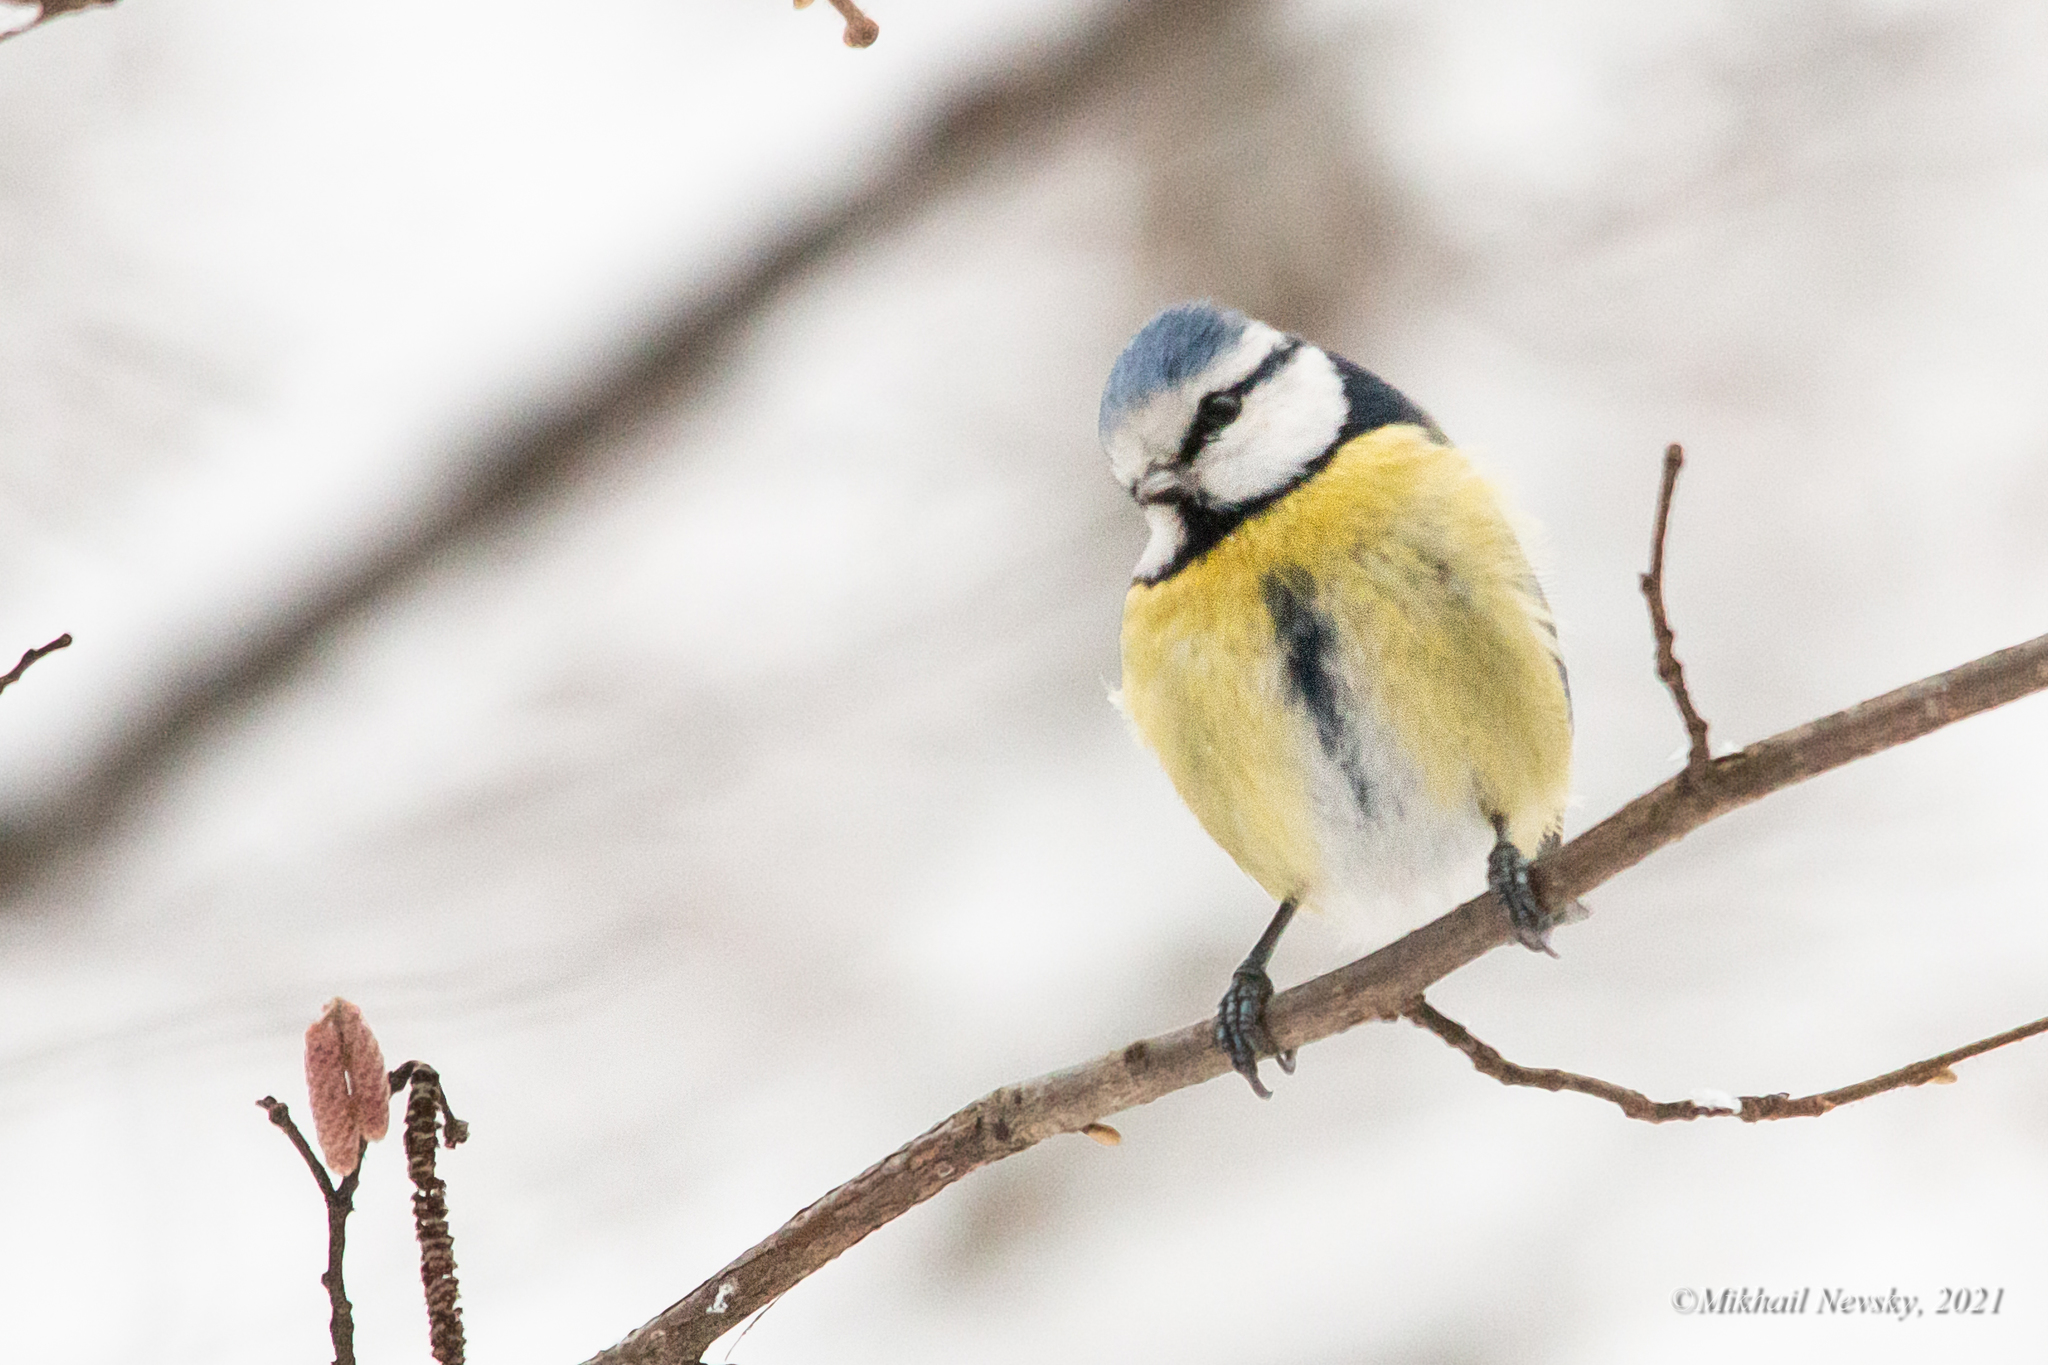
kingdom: Animalia
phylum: Chordata
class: Aves
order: Passeriformes
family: Paridae
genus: Cyanistes
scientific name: Cyanistes caeruleus
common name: Eurasian blue tit
